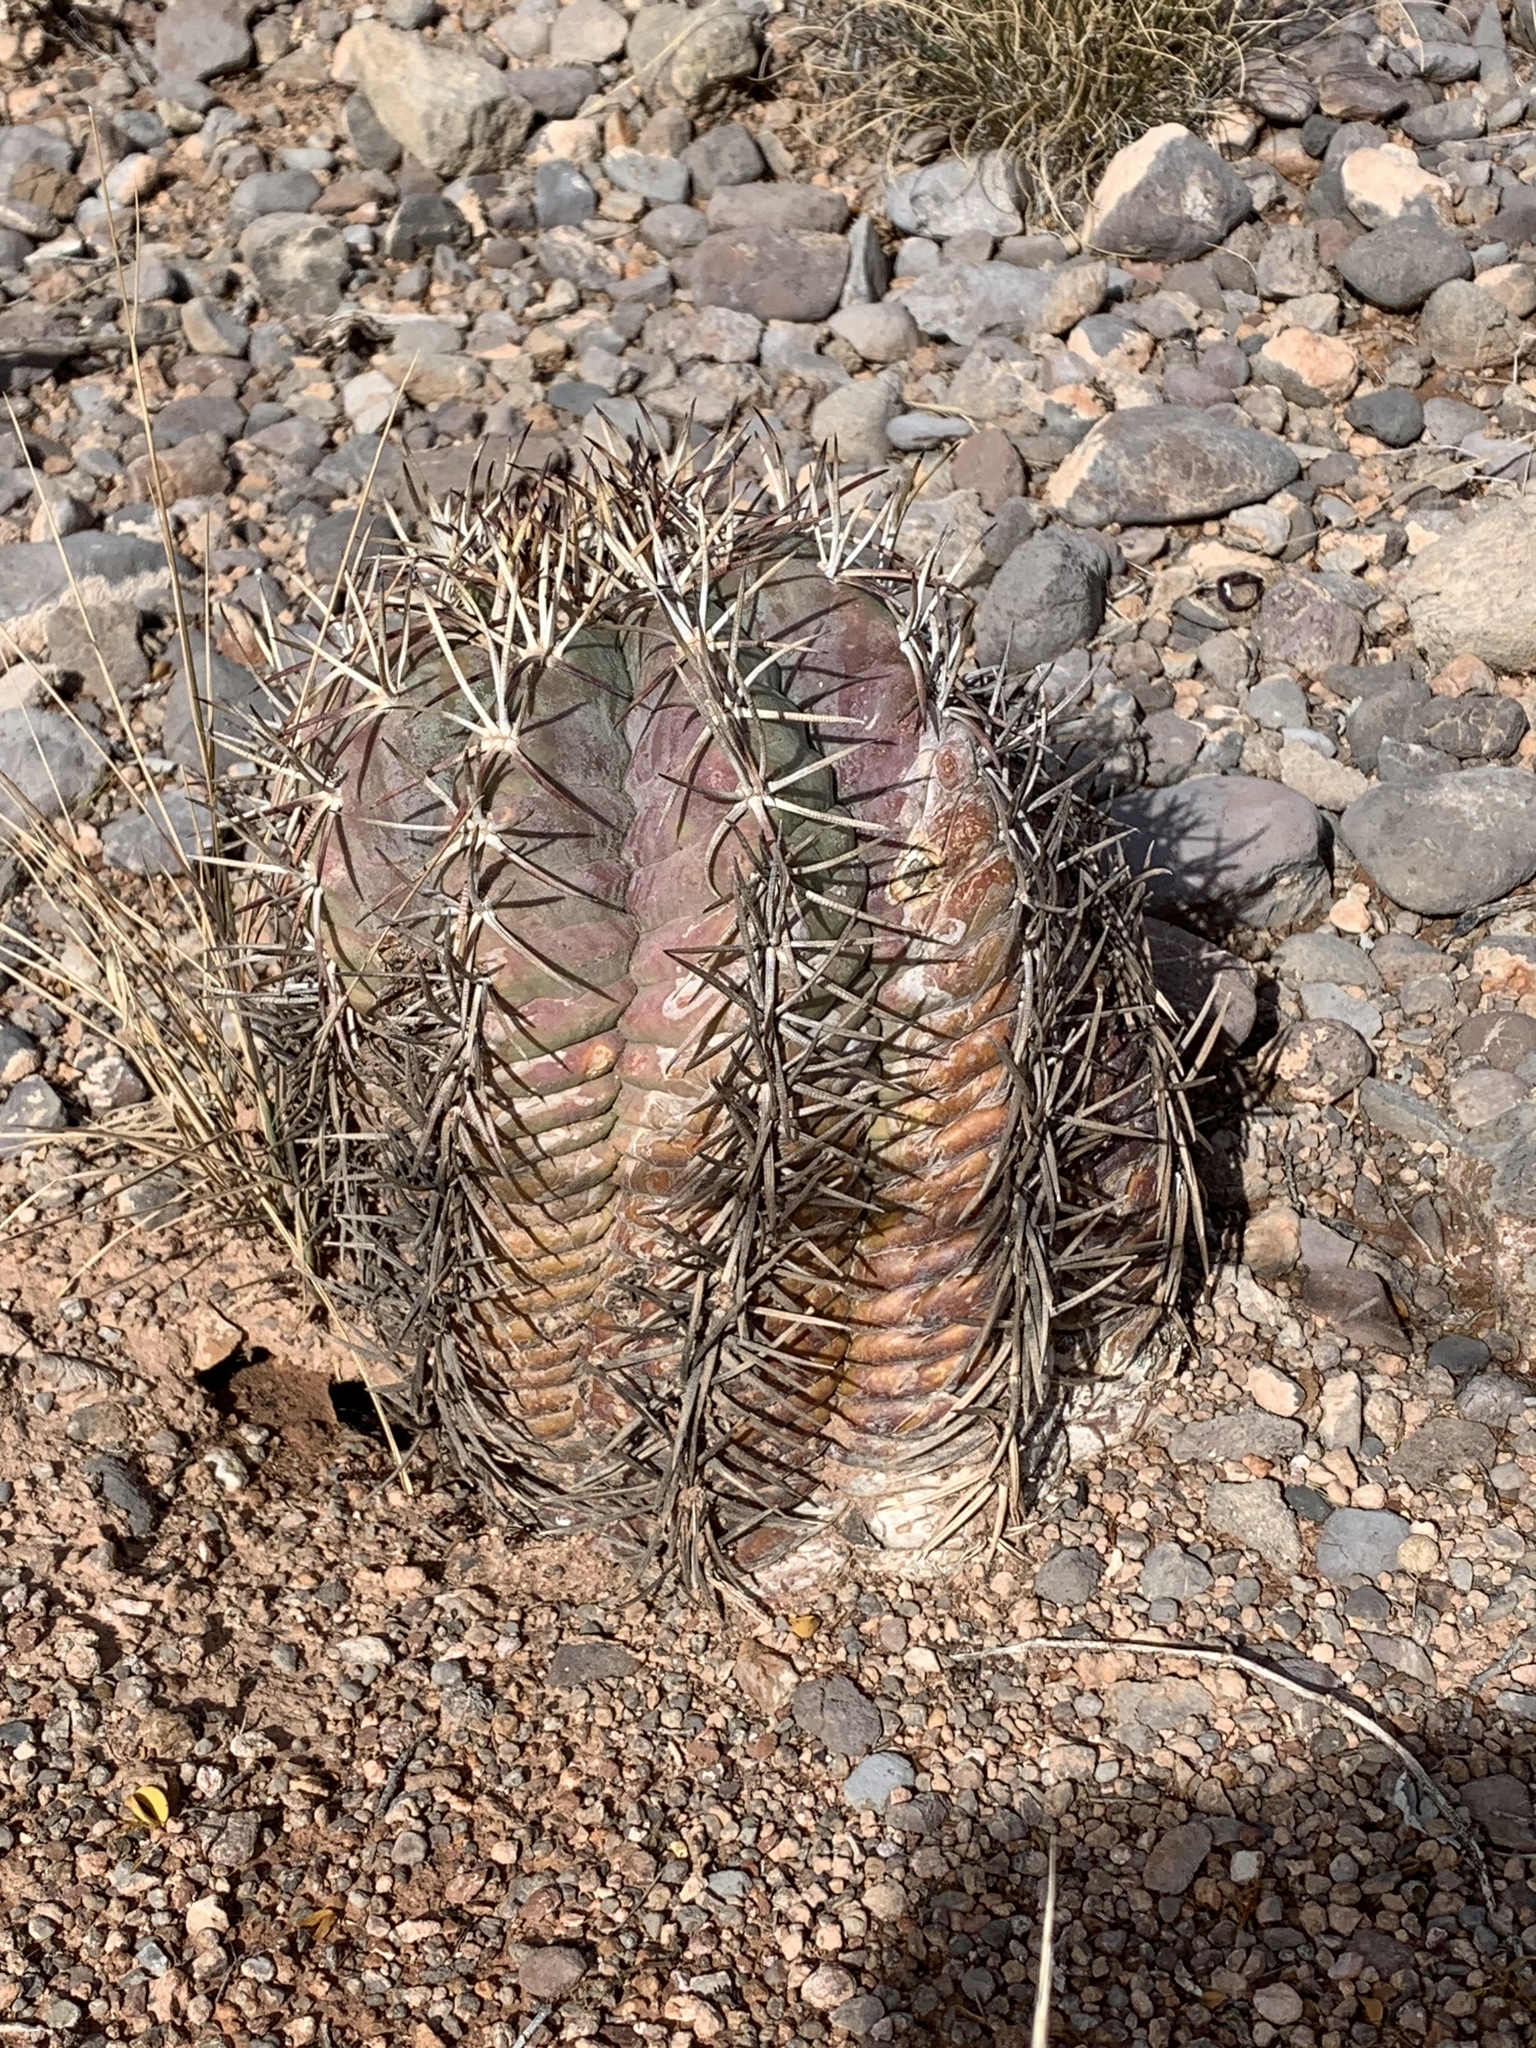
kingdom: Plantae
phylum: Tracheophyta
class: Magnoliopsida
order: Caryophyllales
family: Cactaceae
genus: Echinocactus
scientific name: Echinocactus horizonthalonius
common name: Devilshead
